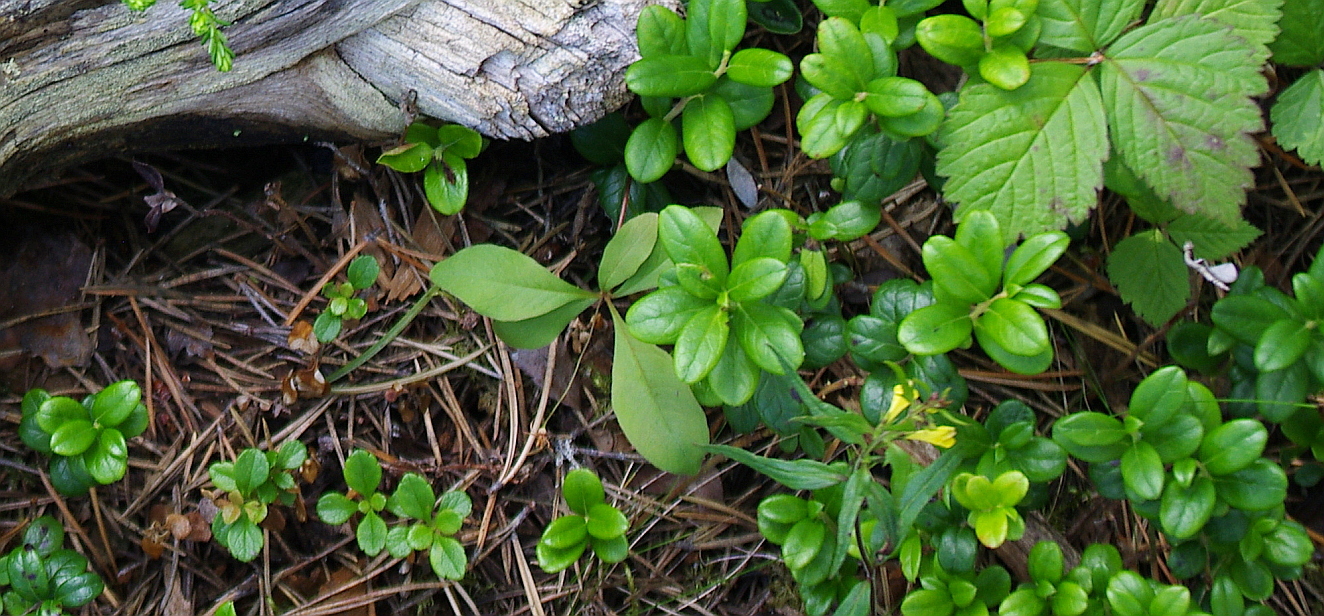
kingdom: Plantae
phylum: Tracheophyta
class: Magnoliopsida
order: Ericales
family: Ericaceae
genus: Vaccinium
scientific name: Vaccinium vitis-idaea
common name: Cowberry
